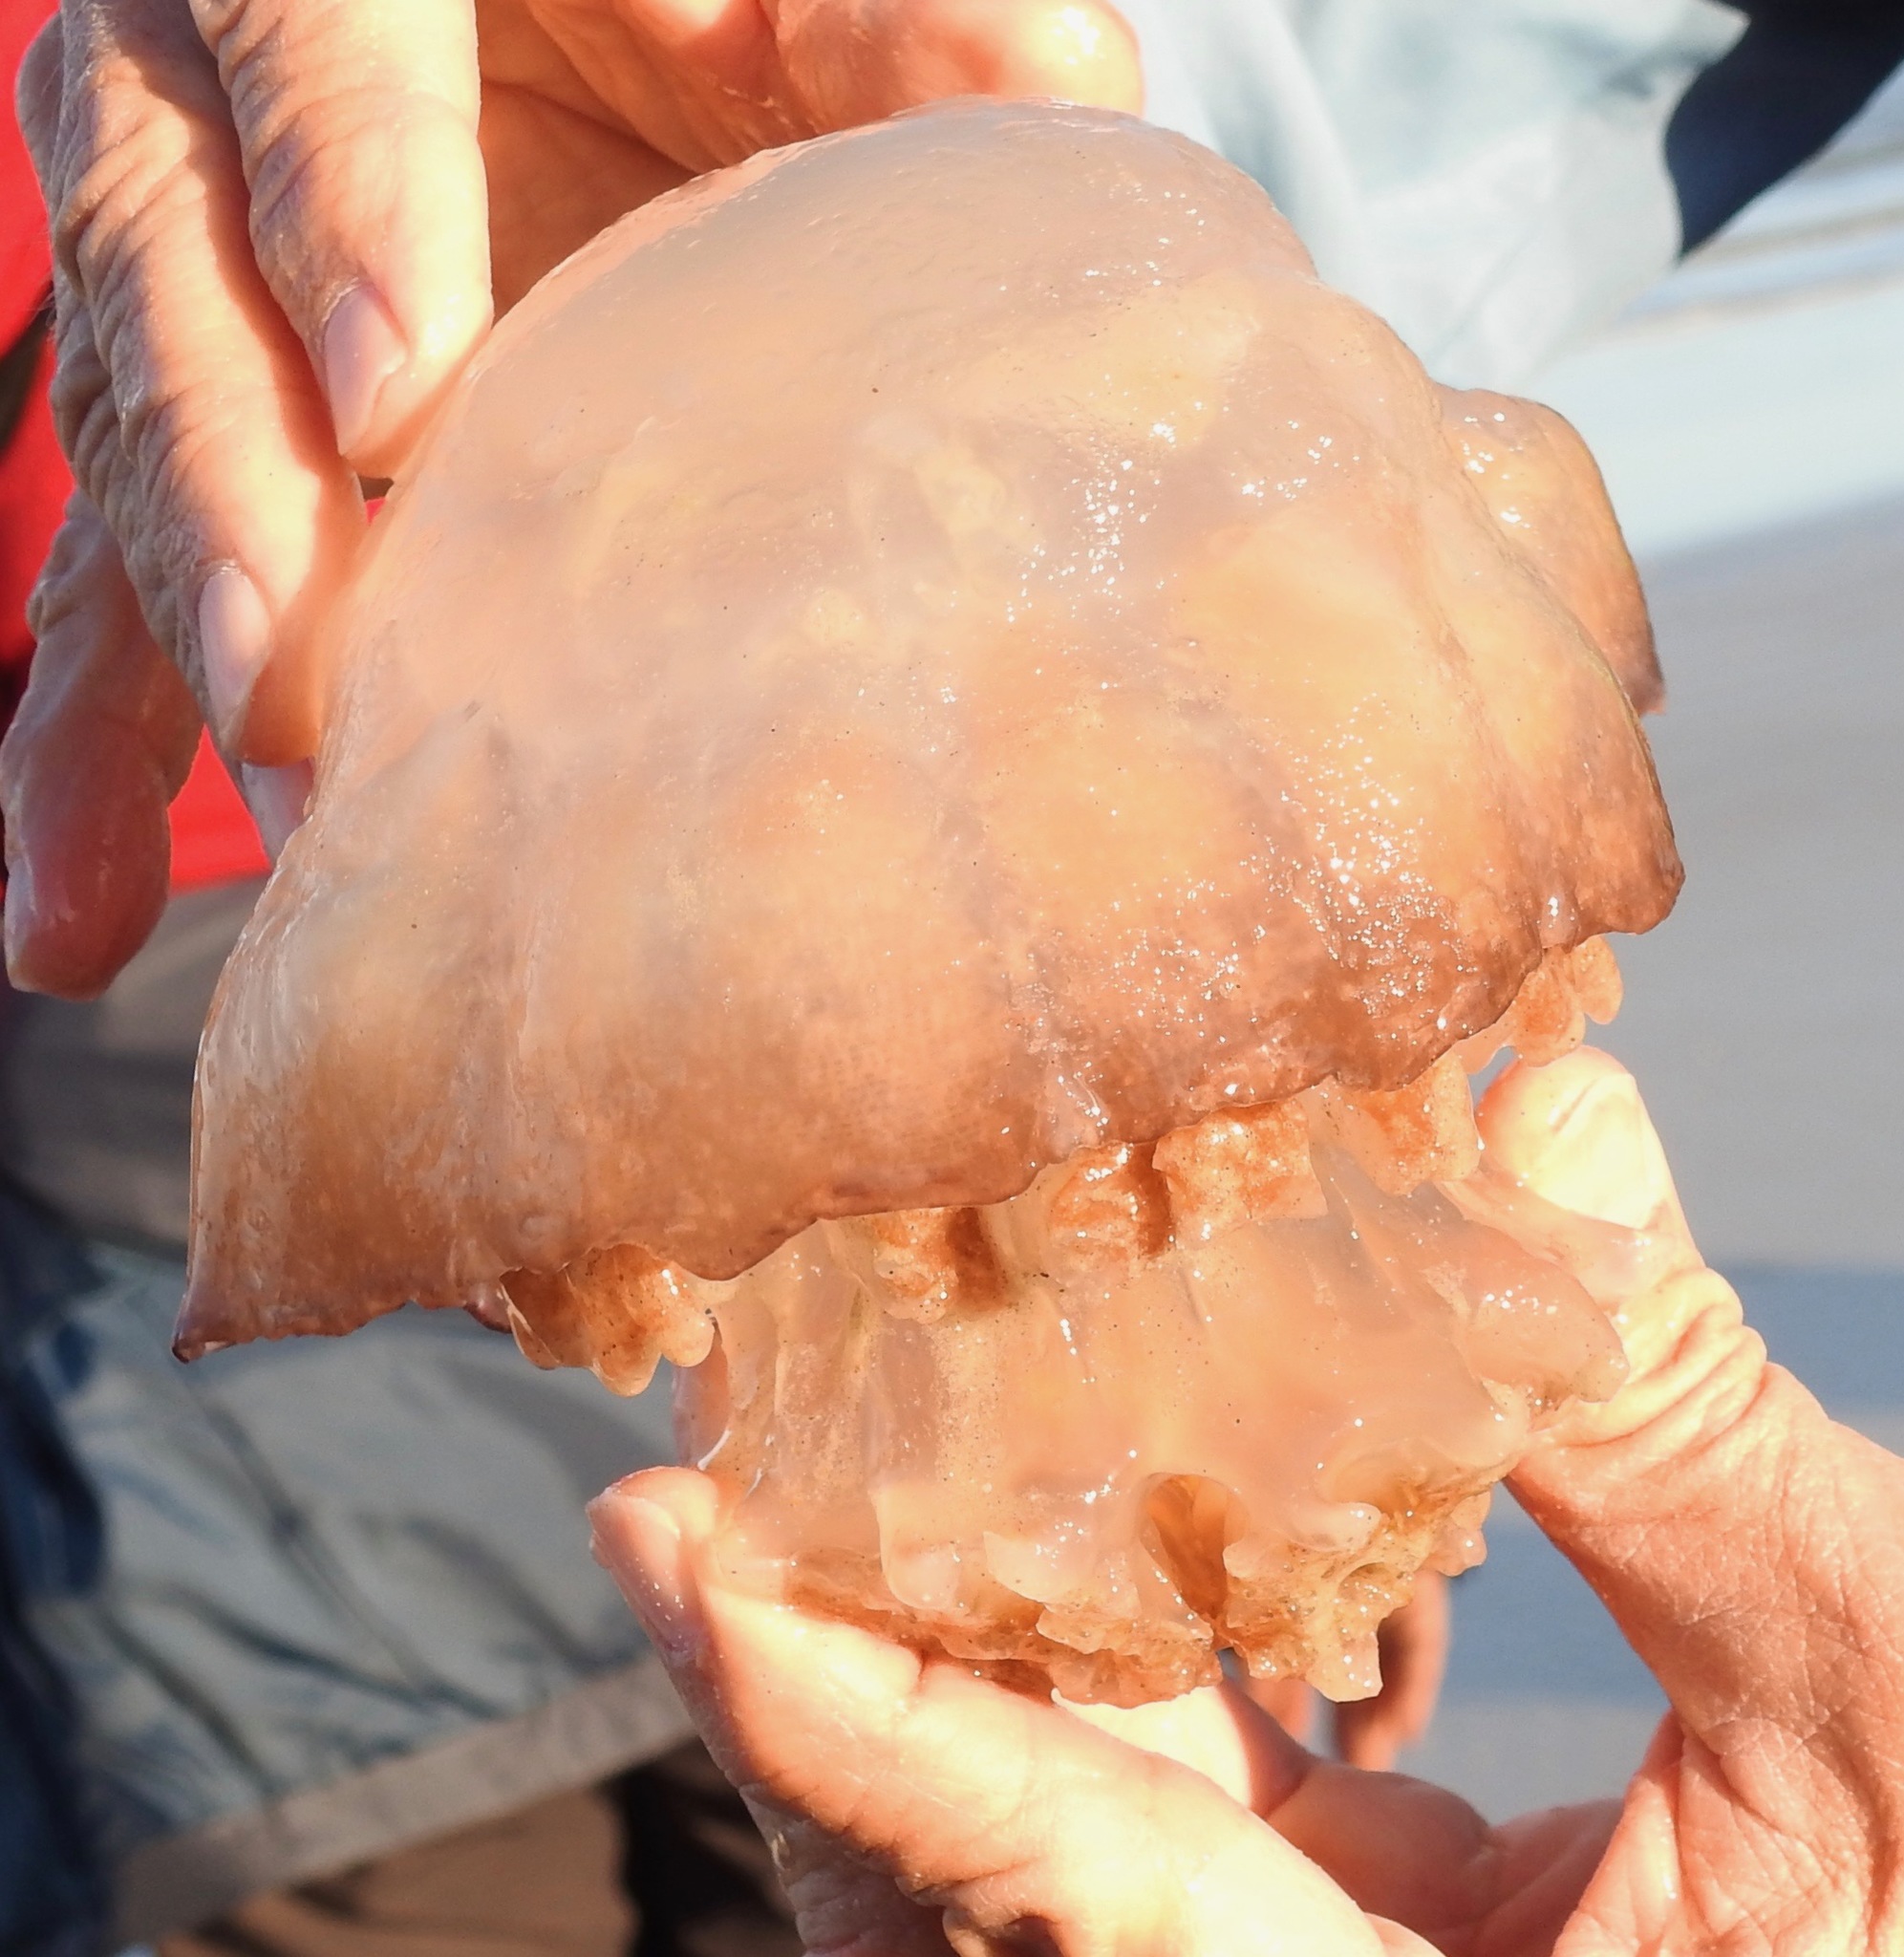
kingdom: Animalia
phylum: Cnidaria
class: Scyphozoa
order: Rhizostomeae
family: Stomolophidae
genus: Stomolophus
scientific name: Stomolophus meleagris
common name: Cabbagehead
